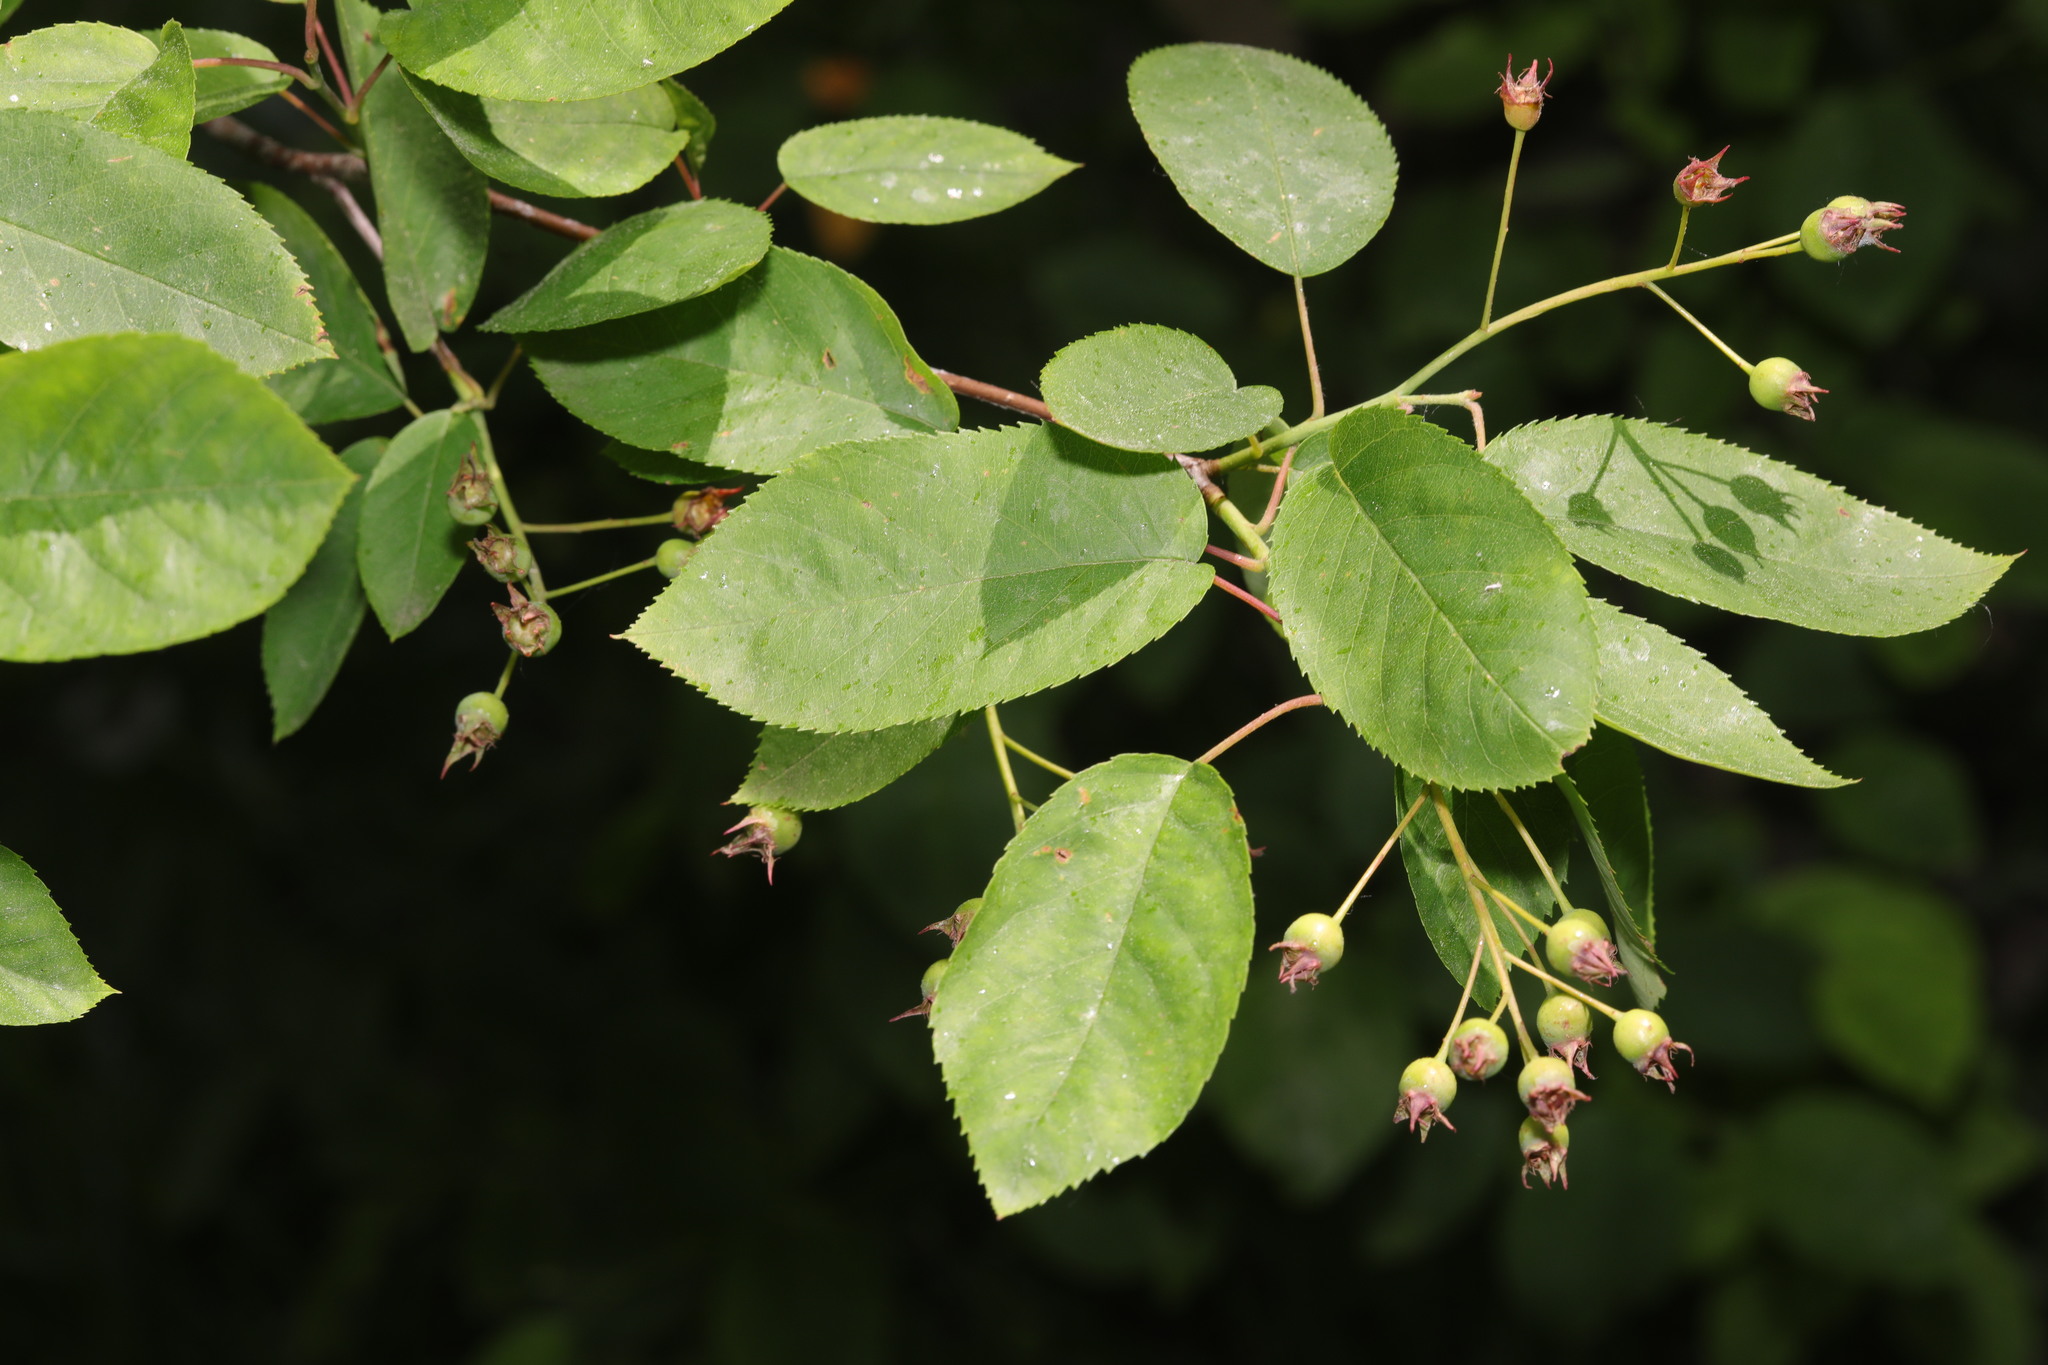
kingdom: Plantae
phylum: Tracheophyta
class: Magnoliopsida
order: Rosales
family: Rosaceae
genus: Prunus
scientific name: Prunus padus
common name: Bird cherry
